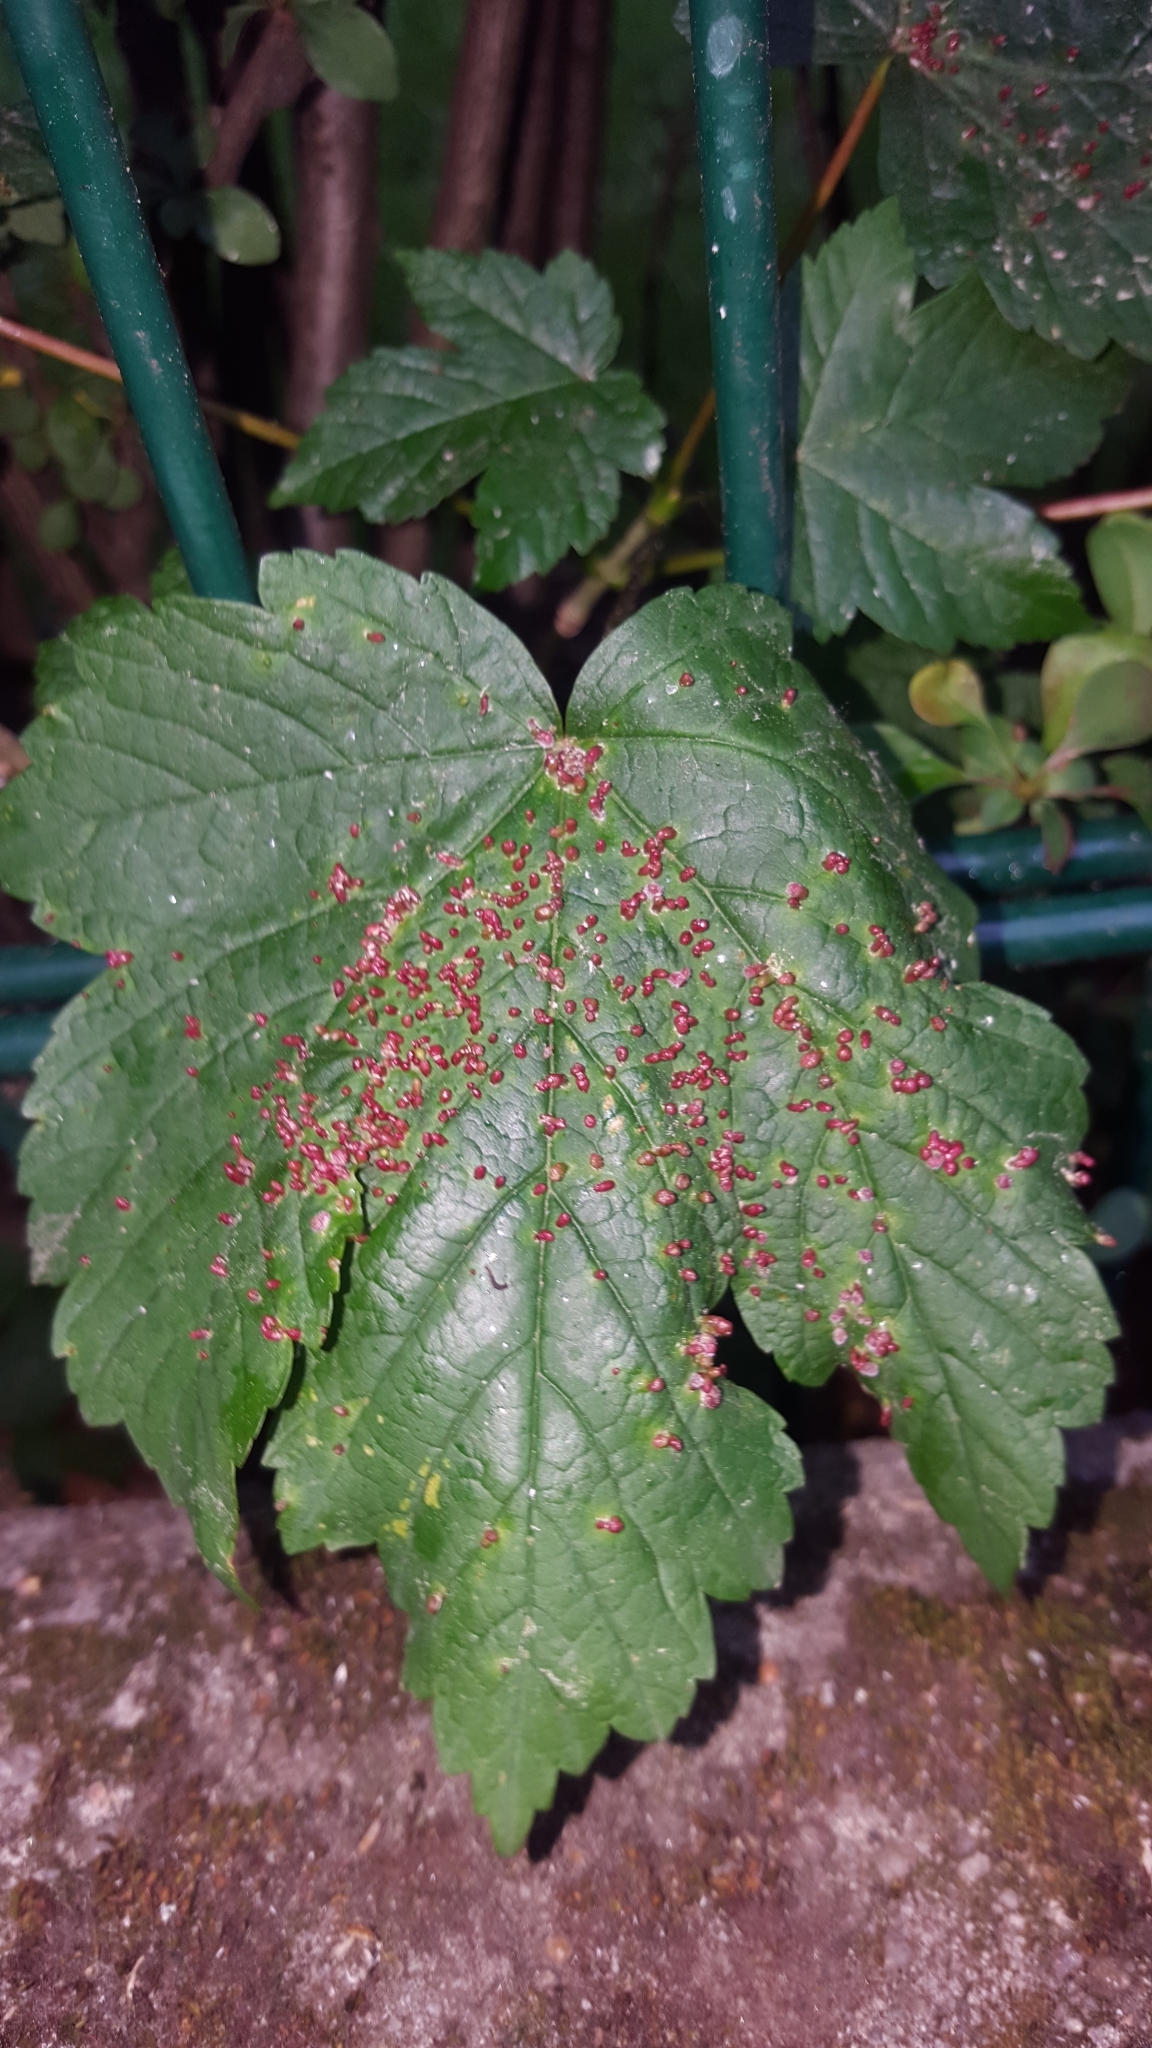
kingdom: Animalia
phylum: Arthropoda
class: Arachnida
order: Trombidiformes
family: Eriophyidae
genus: Aceria
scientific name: Aceria cephaloneus
